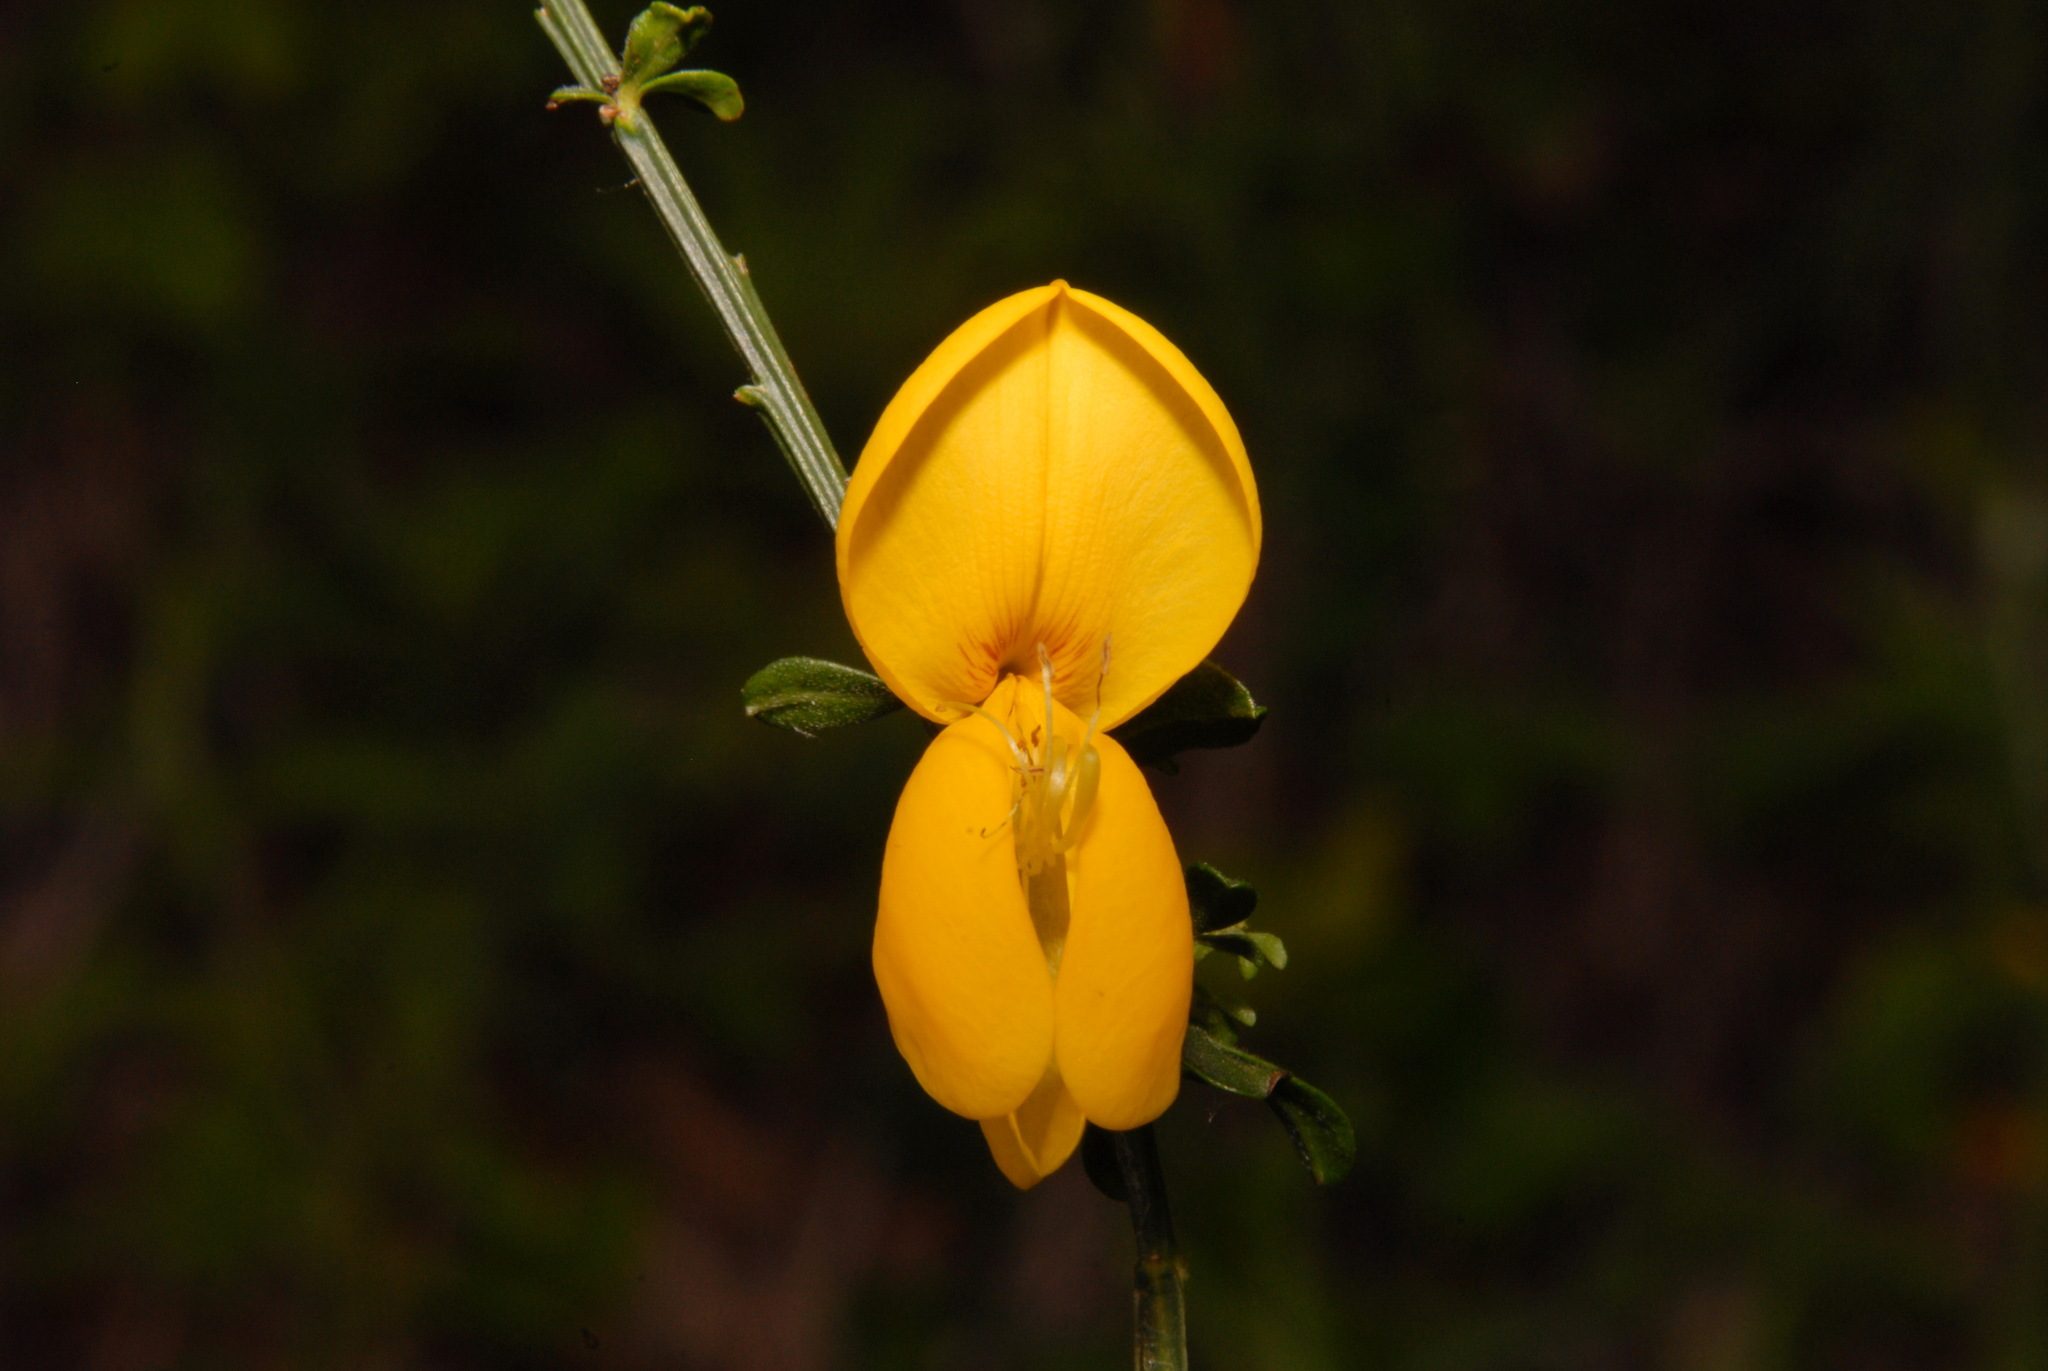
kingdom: Plantae
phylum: Tracheophyta
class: Magnoliopsida
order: Fabales
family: Fabaceae
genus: Cytisus
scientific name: Cytisus scoparius
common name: Scotch broom
